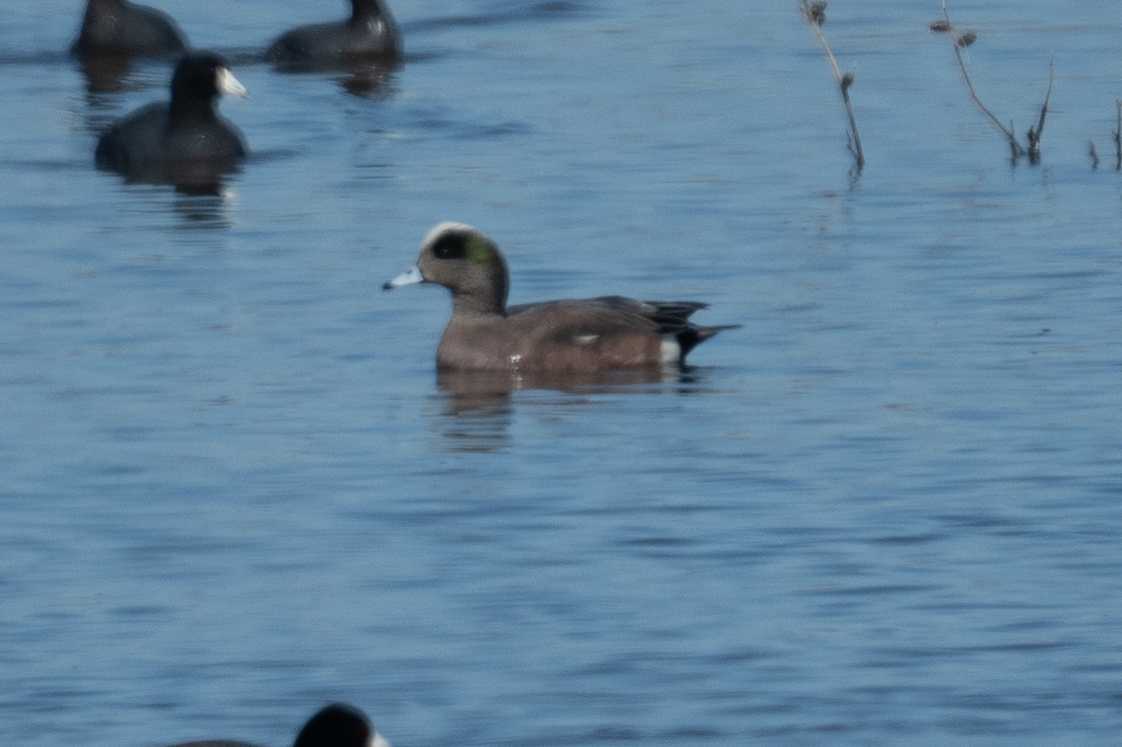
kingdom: Animalia
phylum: Chordata
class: Aves
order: Anseriformes
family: Anatidae
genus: Mareca
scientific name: Mareca americana
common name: American wigeon
